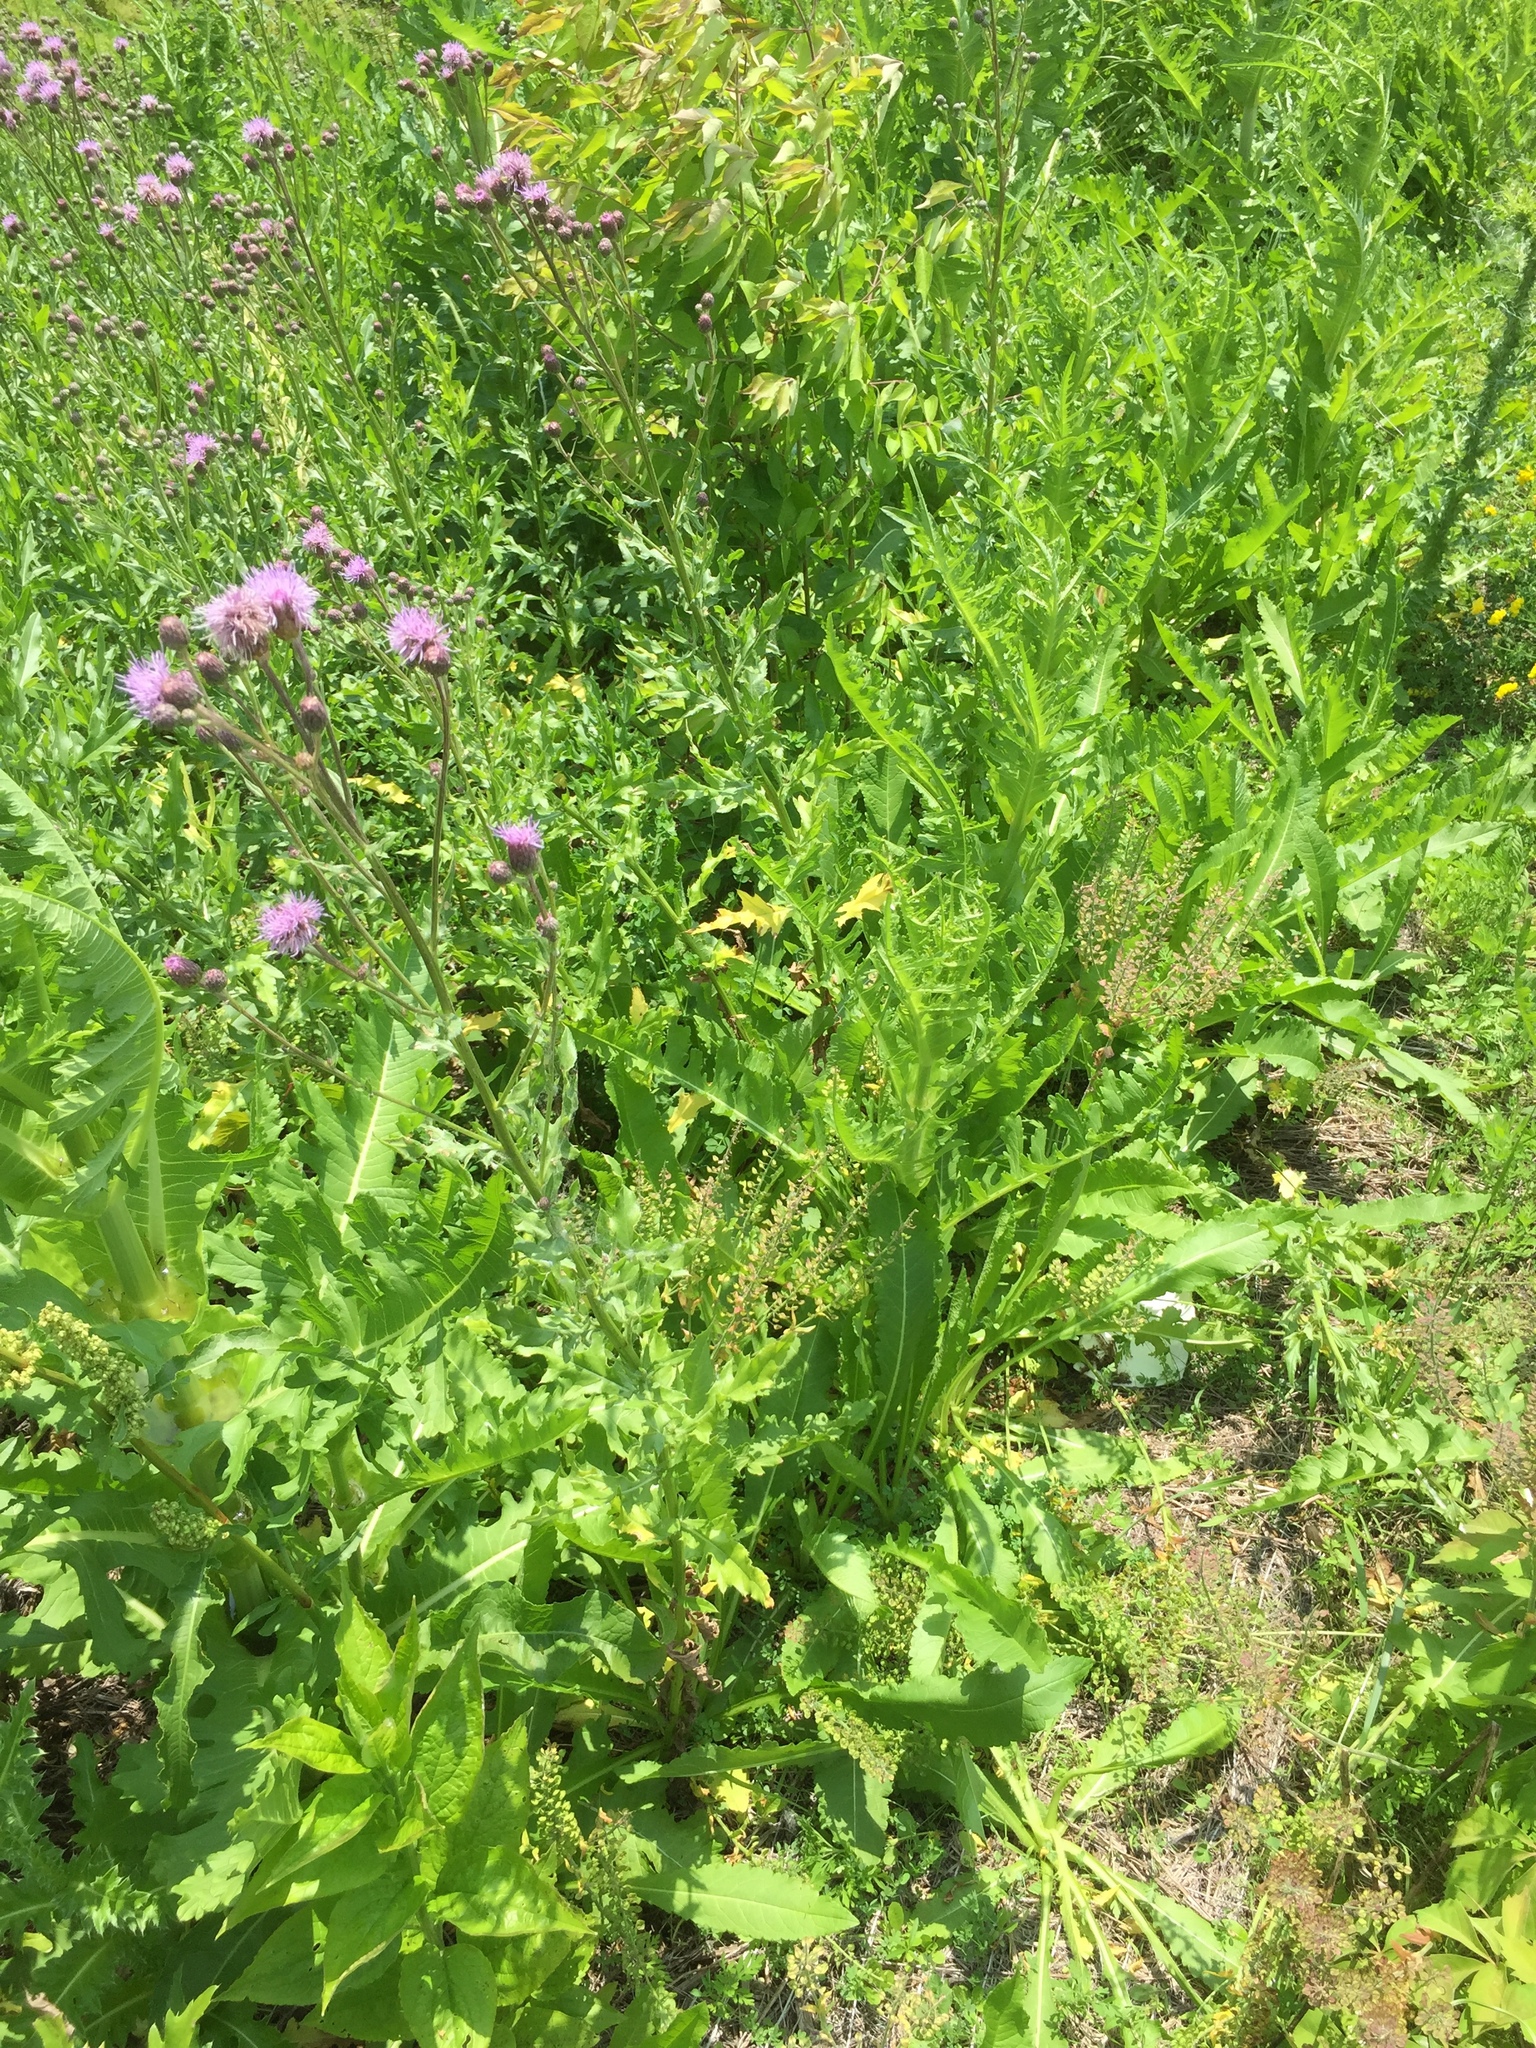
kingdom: Plantae
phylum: Tracheophyta
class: Magnoliopsida
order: Asterales
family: Asteraceae
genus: Cirsium
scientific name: Cirsium arvense
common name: Creeping thistle
